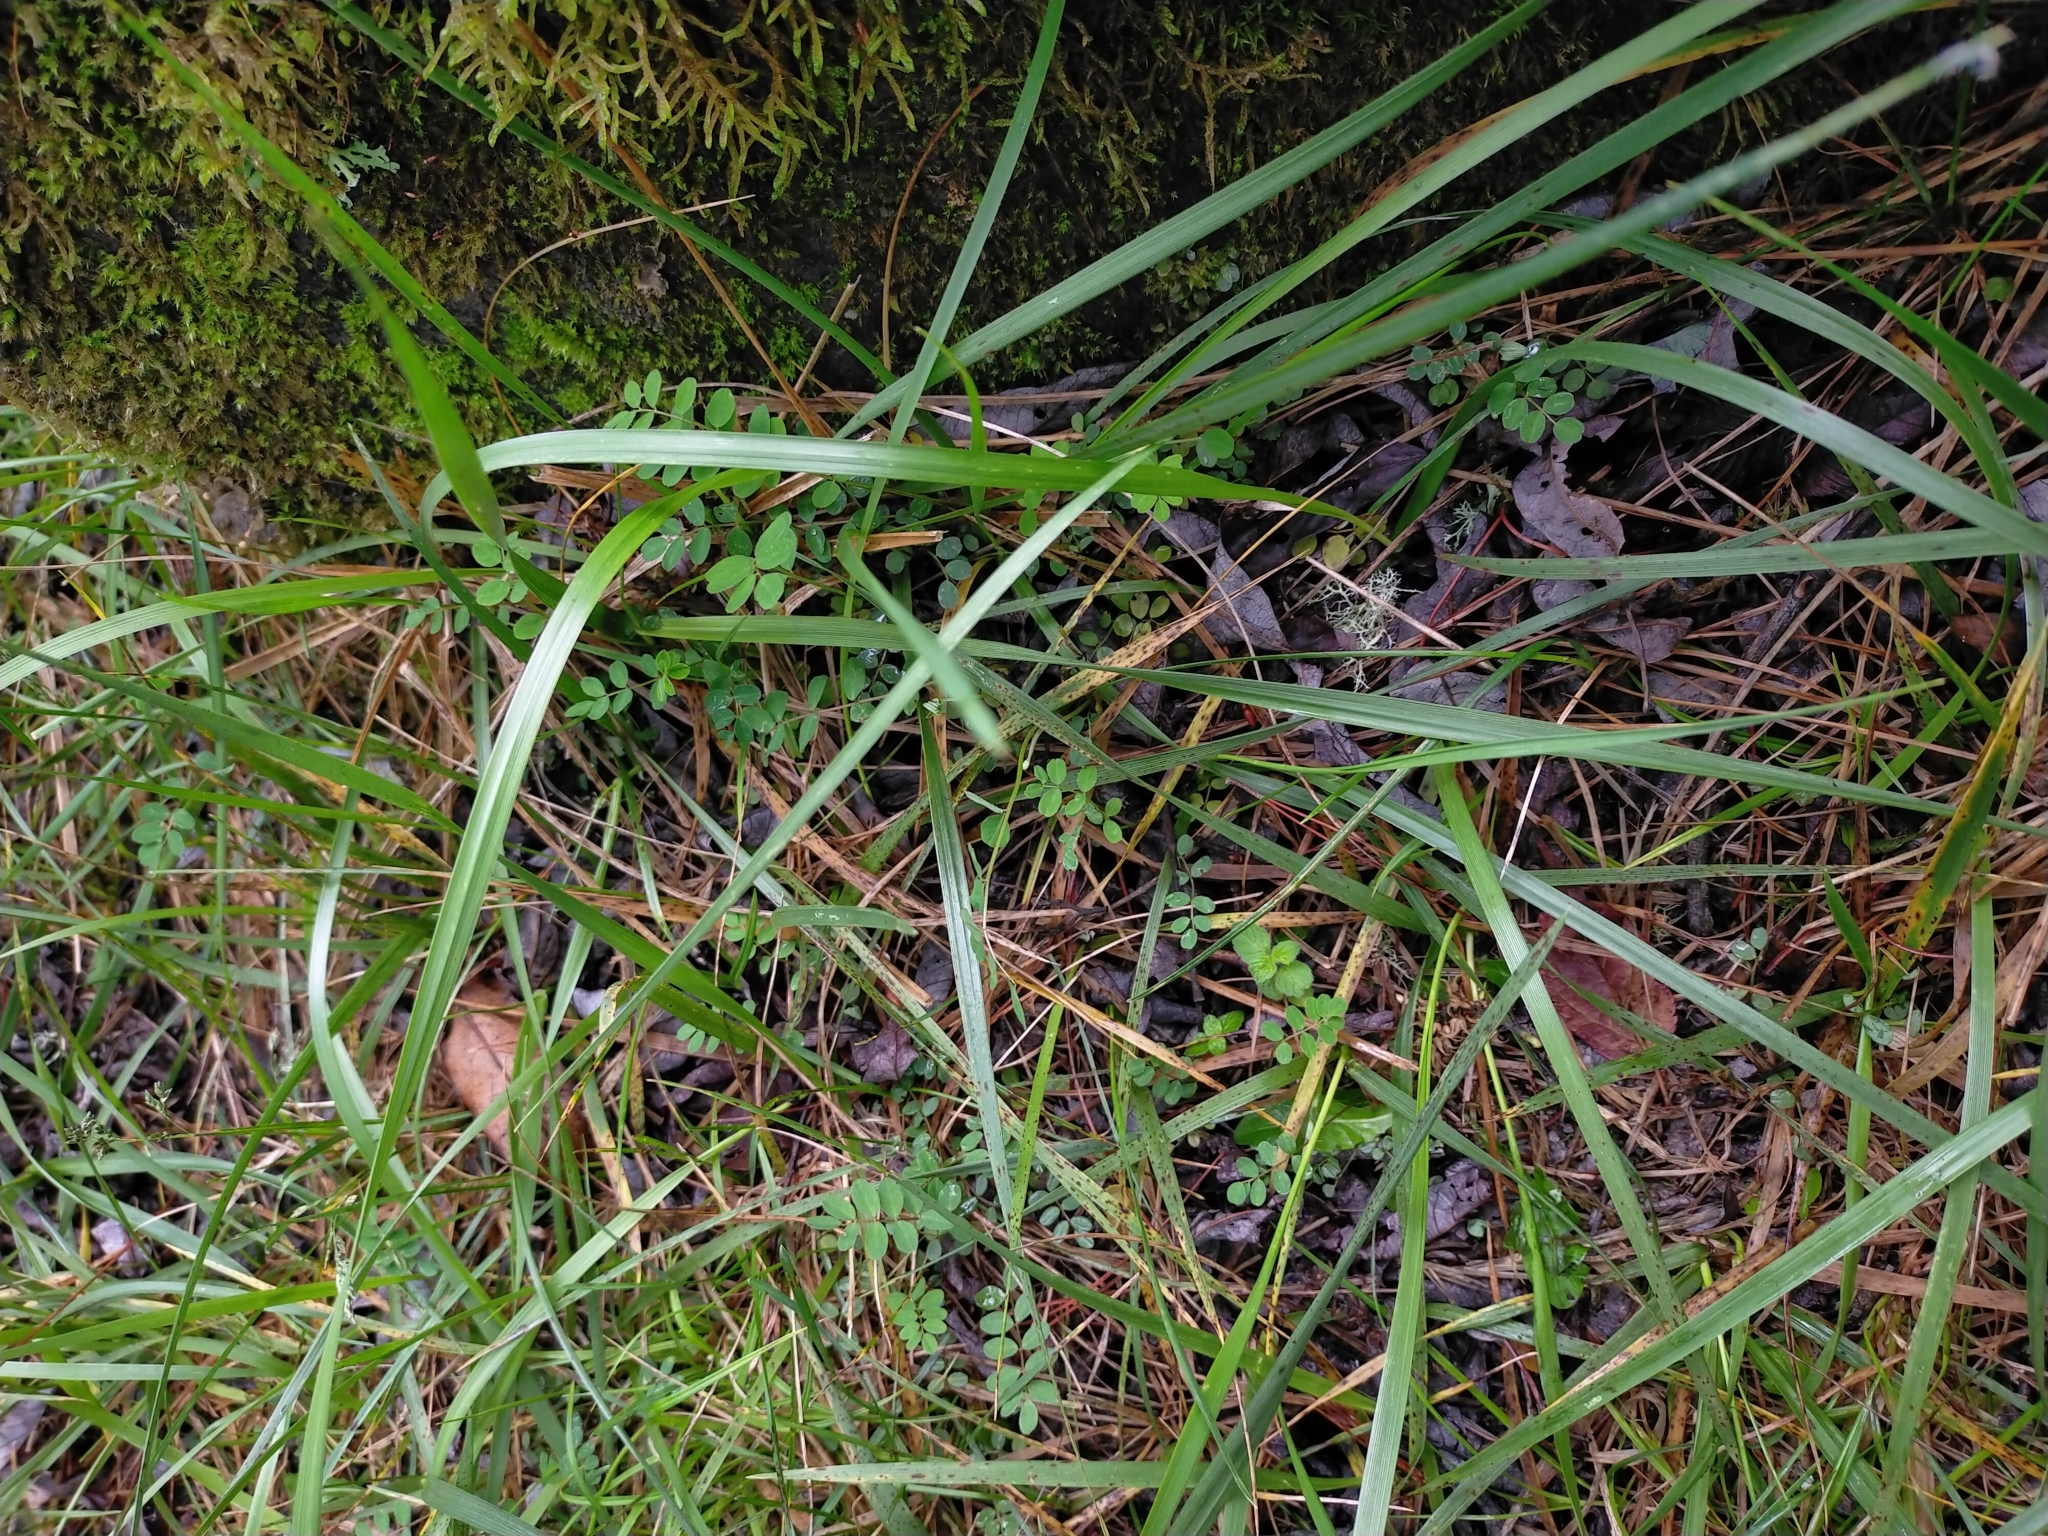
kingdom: Plantae
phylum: Tracheophyta
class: Magnoliopsida
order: Fabales
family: Fabaceae
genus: Astragalus
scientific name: Astragalus nokoensis
